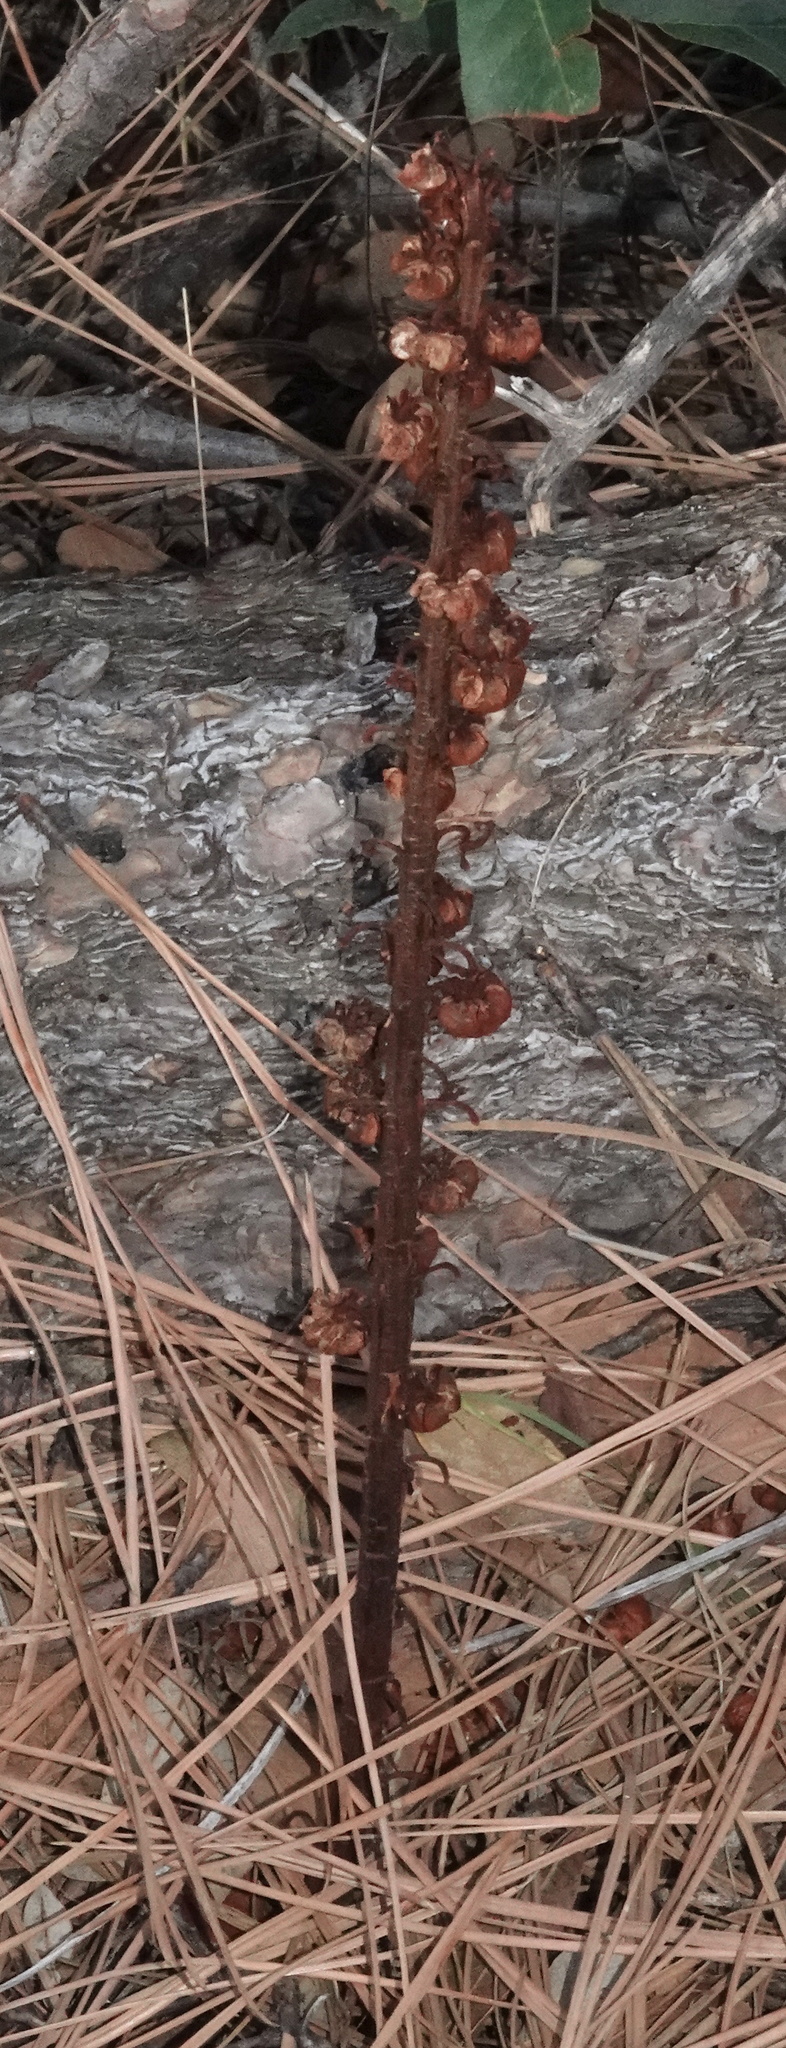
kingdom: Plantae
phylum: Tracheophyta
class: Magnoliopsida
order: Ericales
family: Ericaceae
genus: Pterospora
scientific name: Pterospora andromedea
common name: Giant bird's-nest
